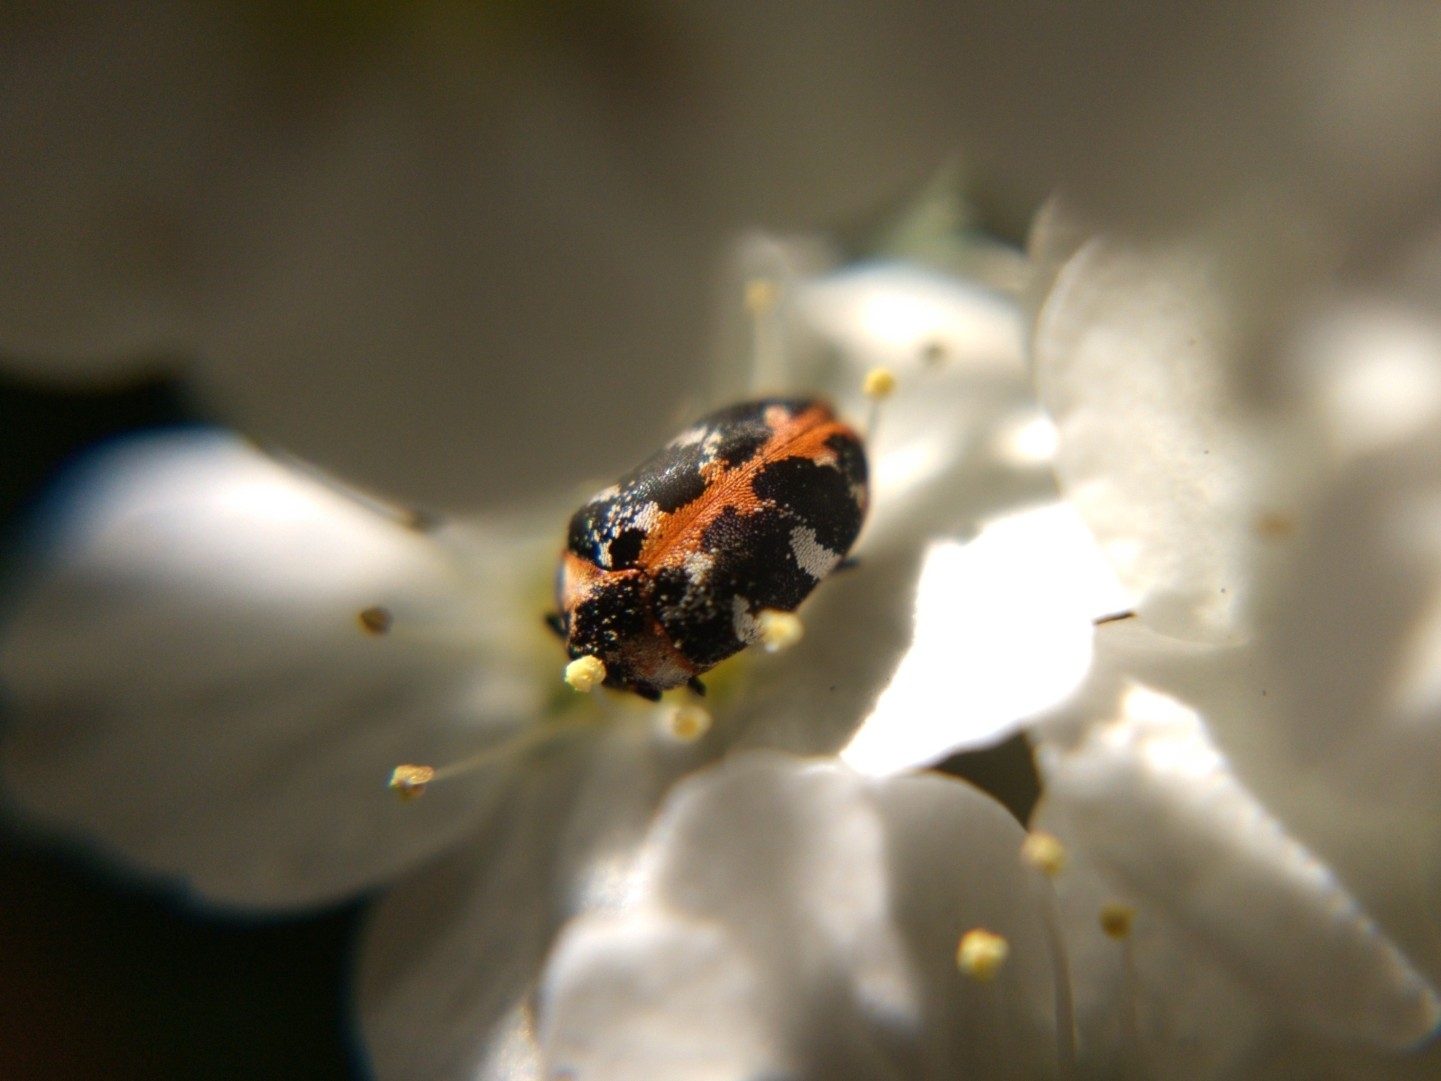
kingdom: Animalia
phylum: Arthropoda
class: Insecta
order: Coleoptera
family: Dermestidae
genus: Anthrenus
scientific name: Anthrenus scrophulariae
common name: Buffalo carpet beetle
